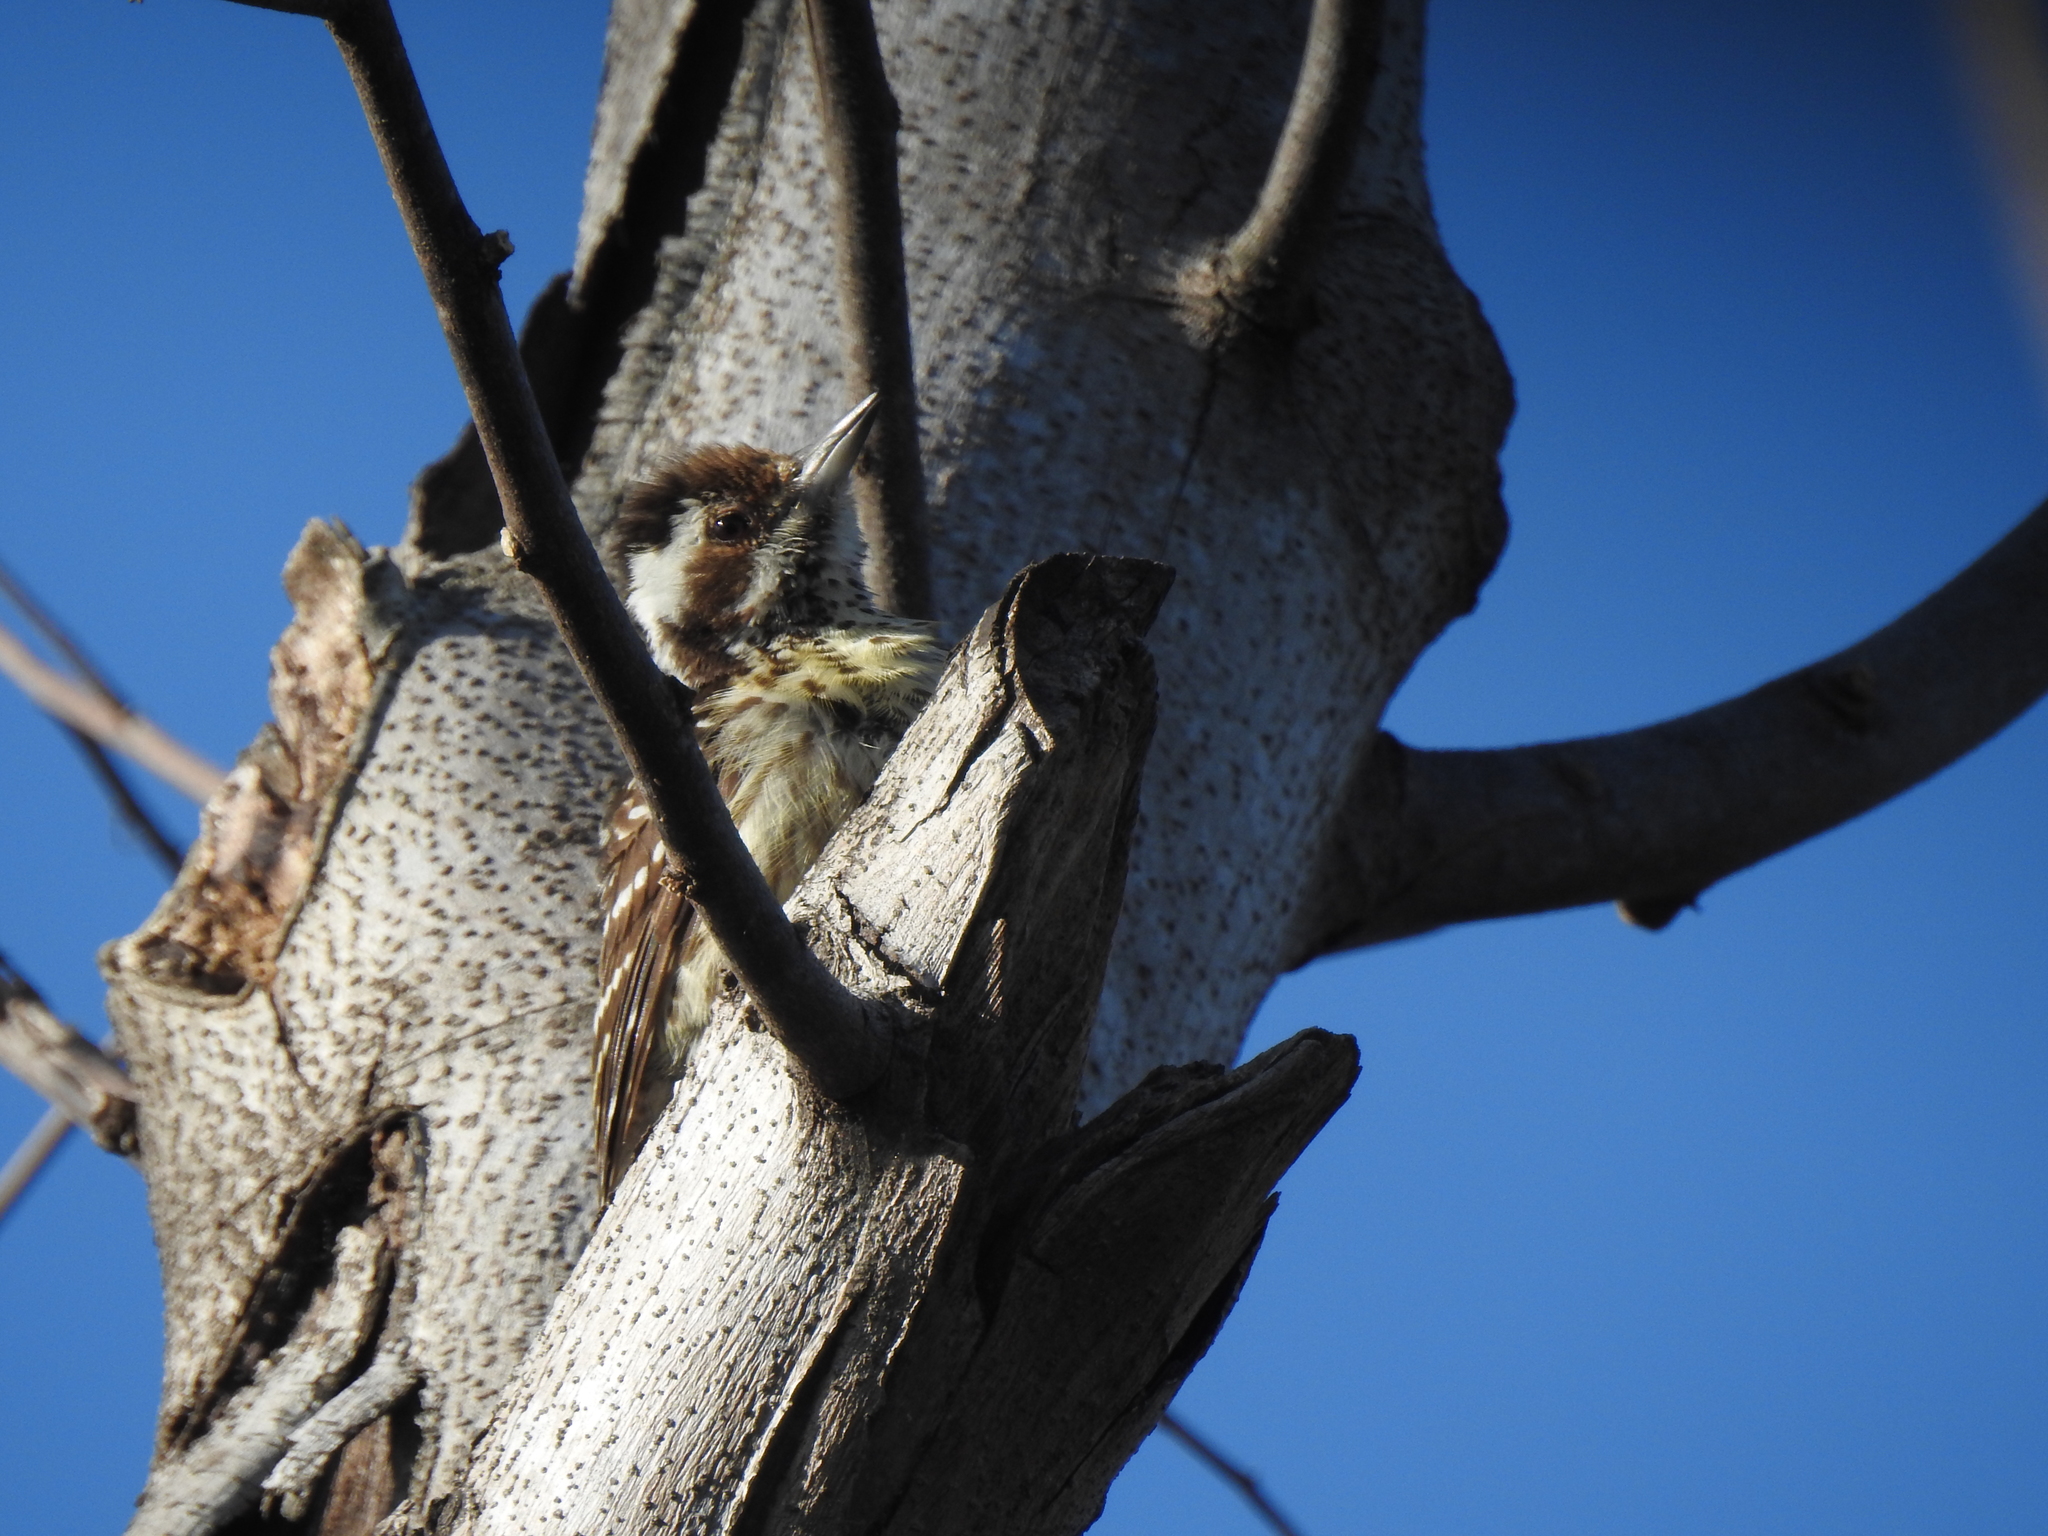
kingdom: Animalia
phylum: Chordata
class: Aves
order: Piciformes
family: Picidae
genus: Yungipicus
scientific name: Yungipicus maculatus
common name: Philippine pygmy woodpecker
